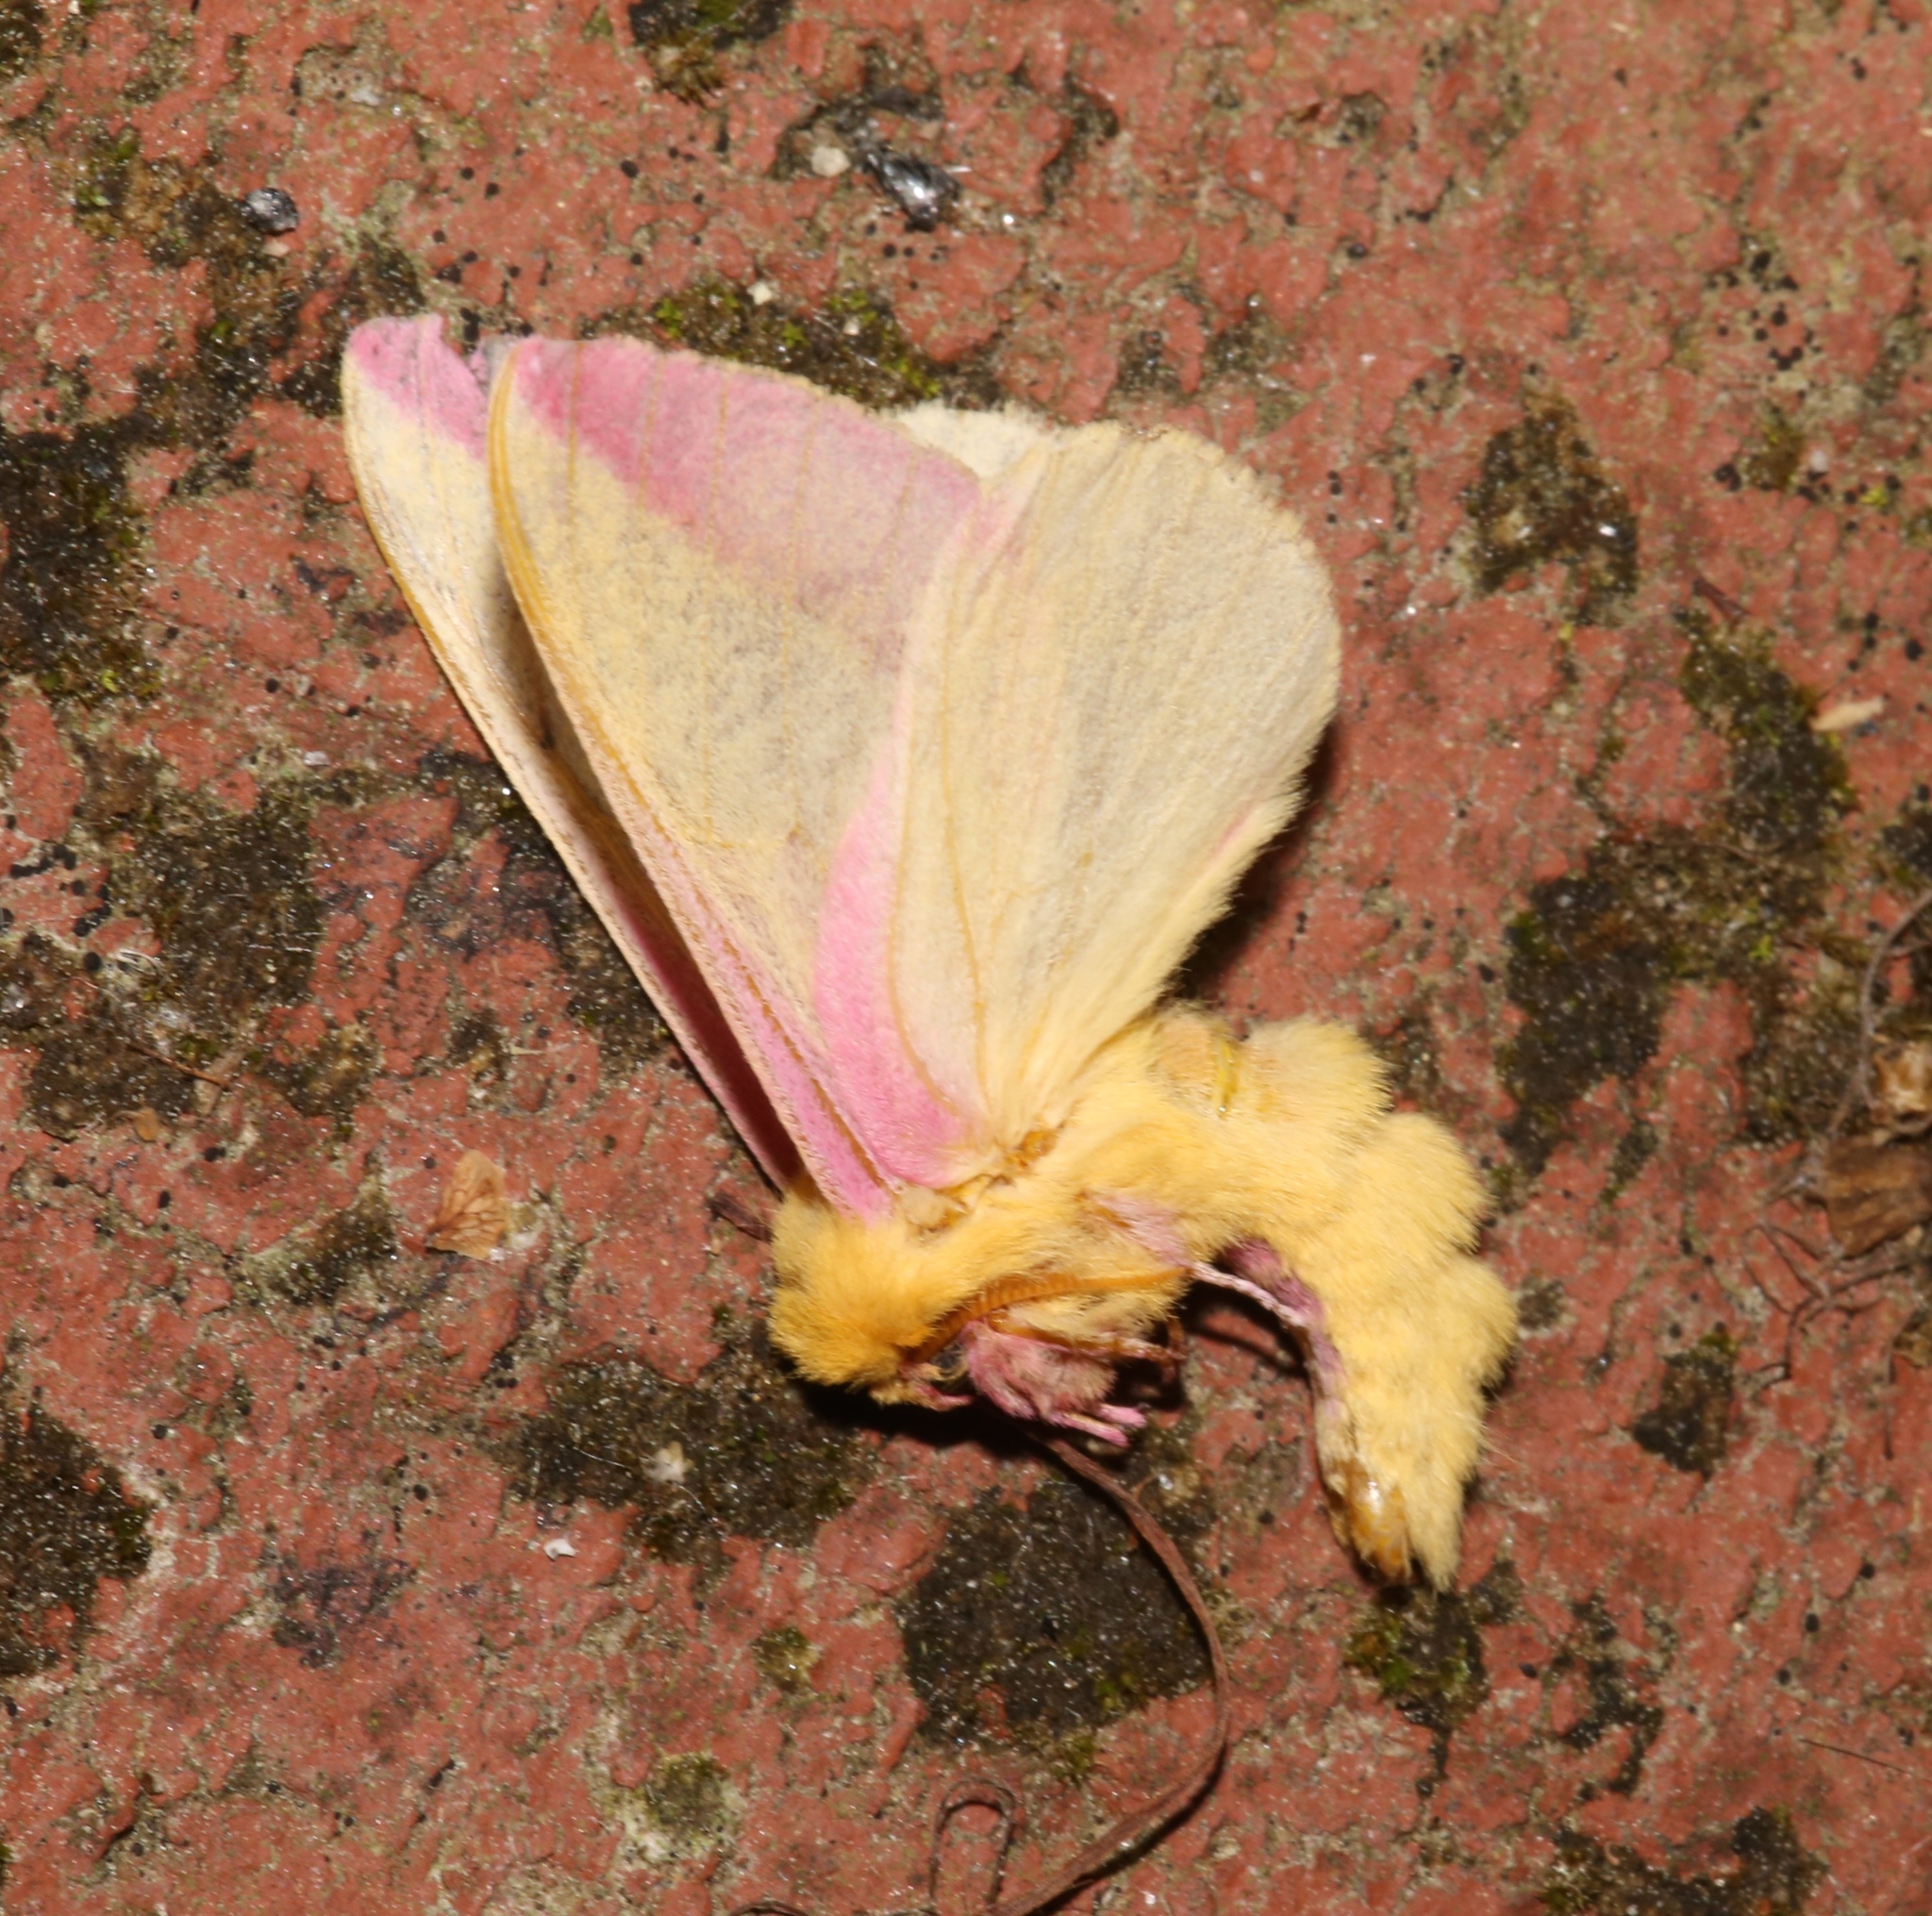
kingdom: Animalia
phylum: Arthropoda
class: Insecta
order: Lepidoptera
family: Saturniidae
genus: Dryocampa
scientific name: Dryocampa rubicunda
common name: Rosy maple moth
